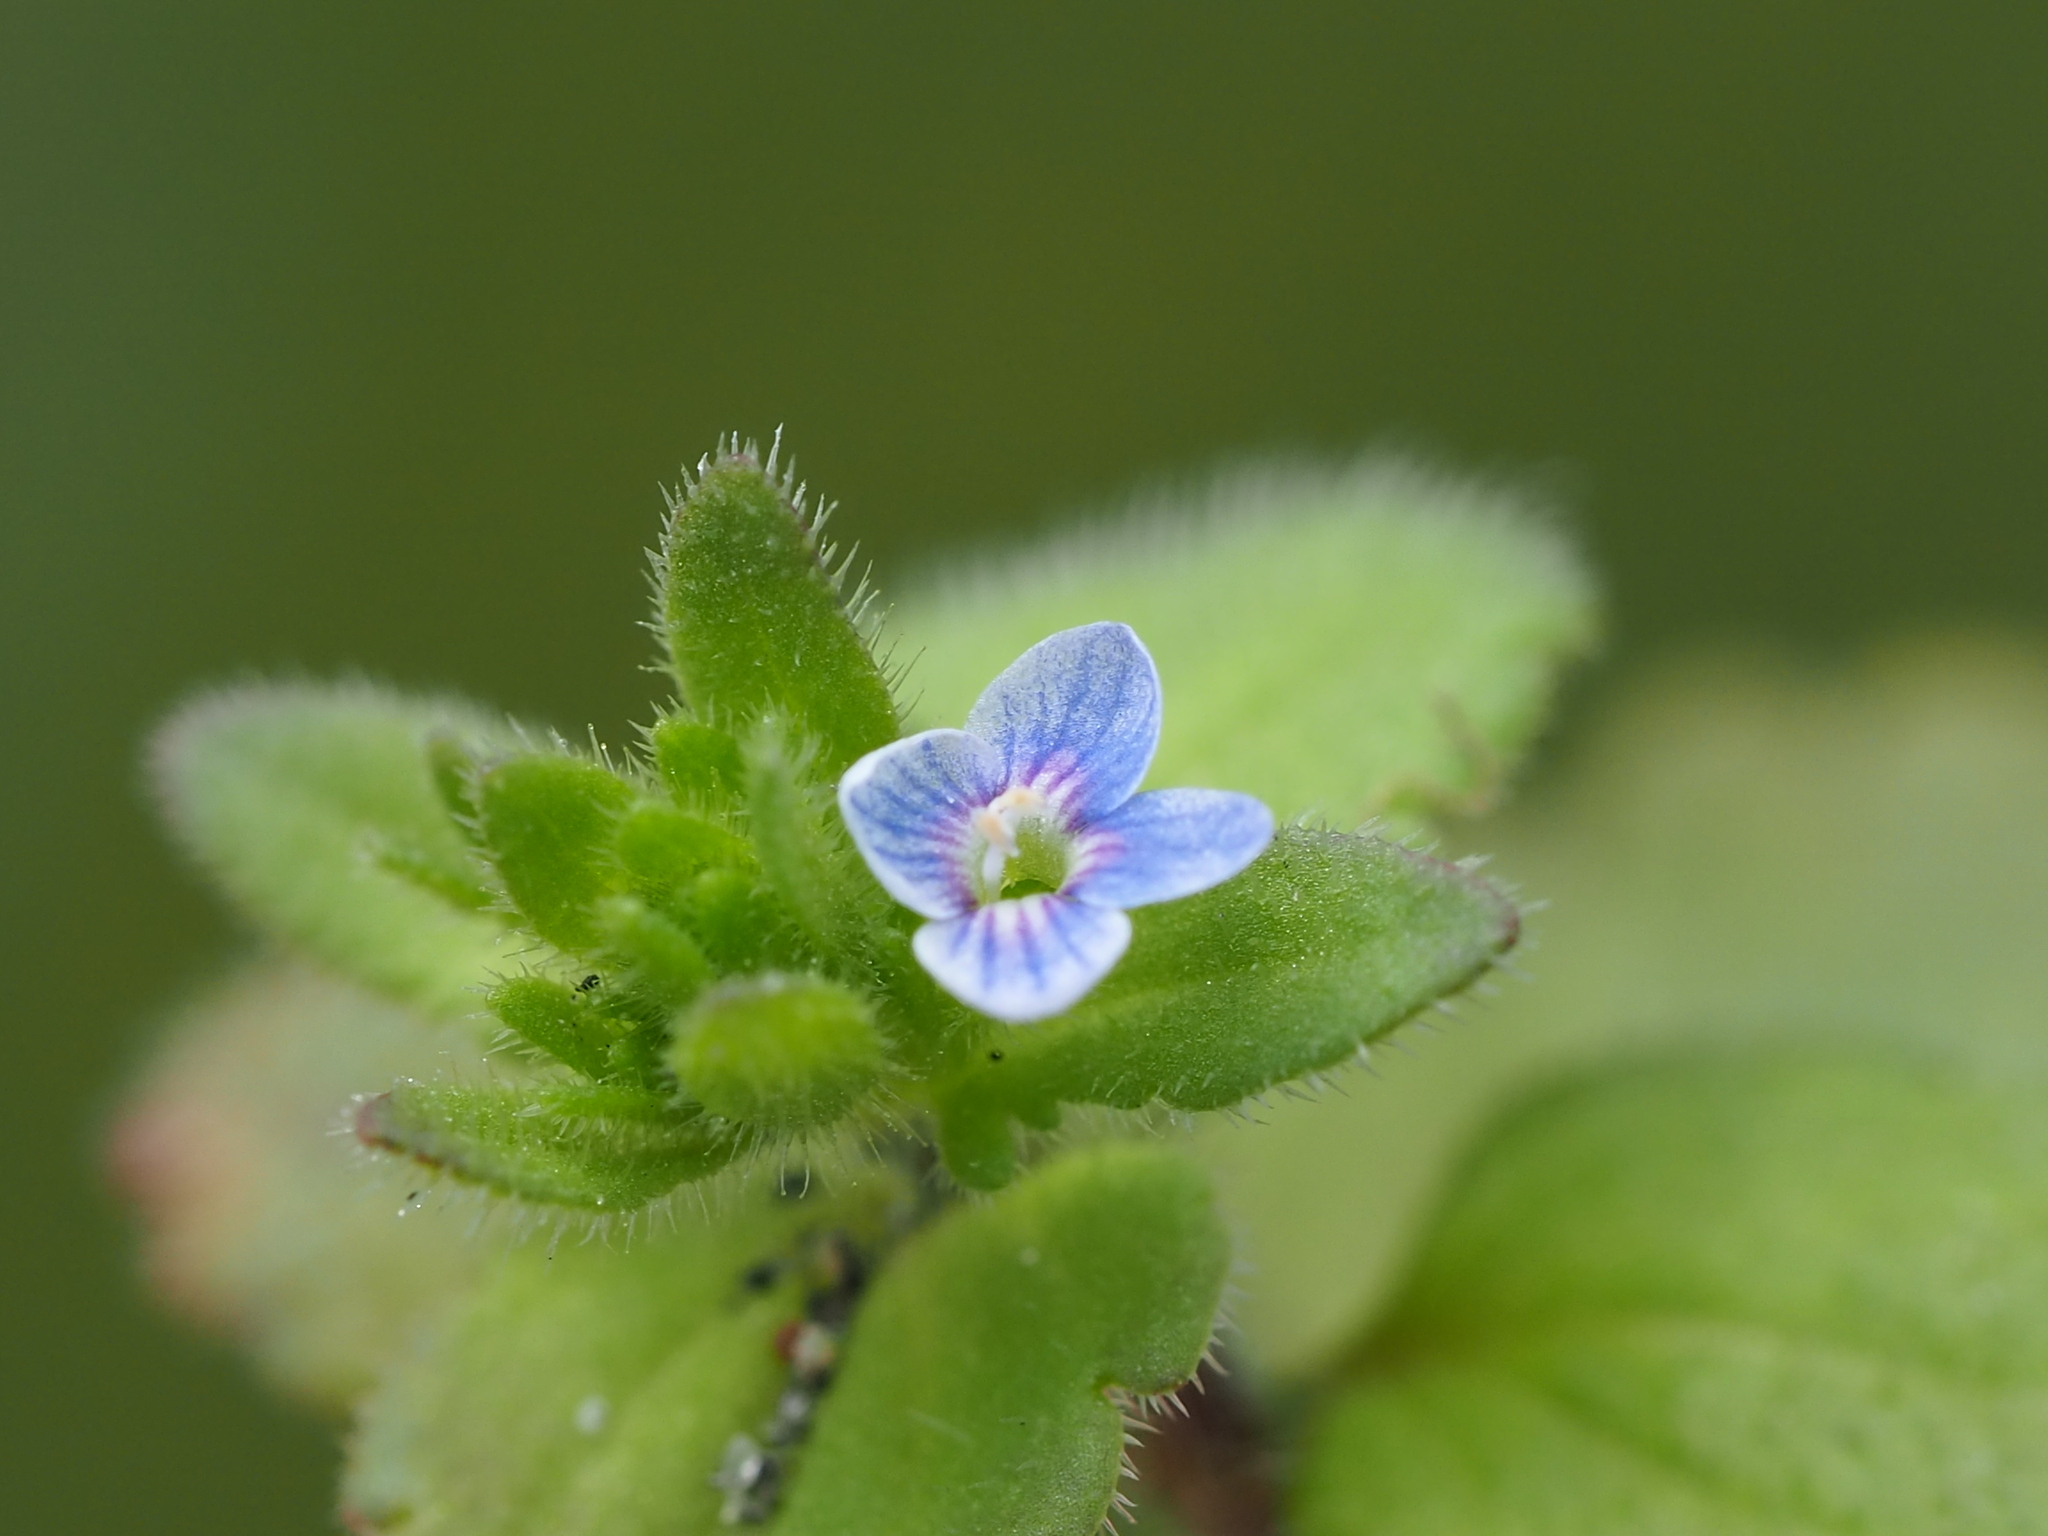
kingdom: Plantae
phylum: Tracheophyta
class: Magnoliopsida
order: Lamiales
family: Plantaginaceae
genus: Veronica
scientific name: Veronica arvensis
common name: Corn speedwell
